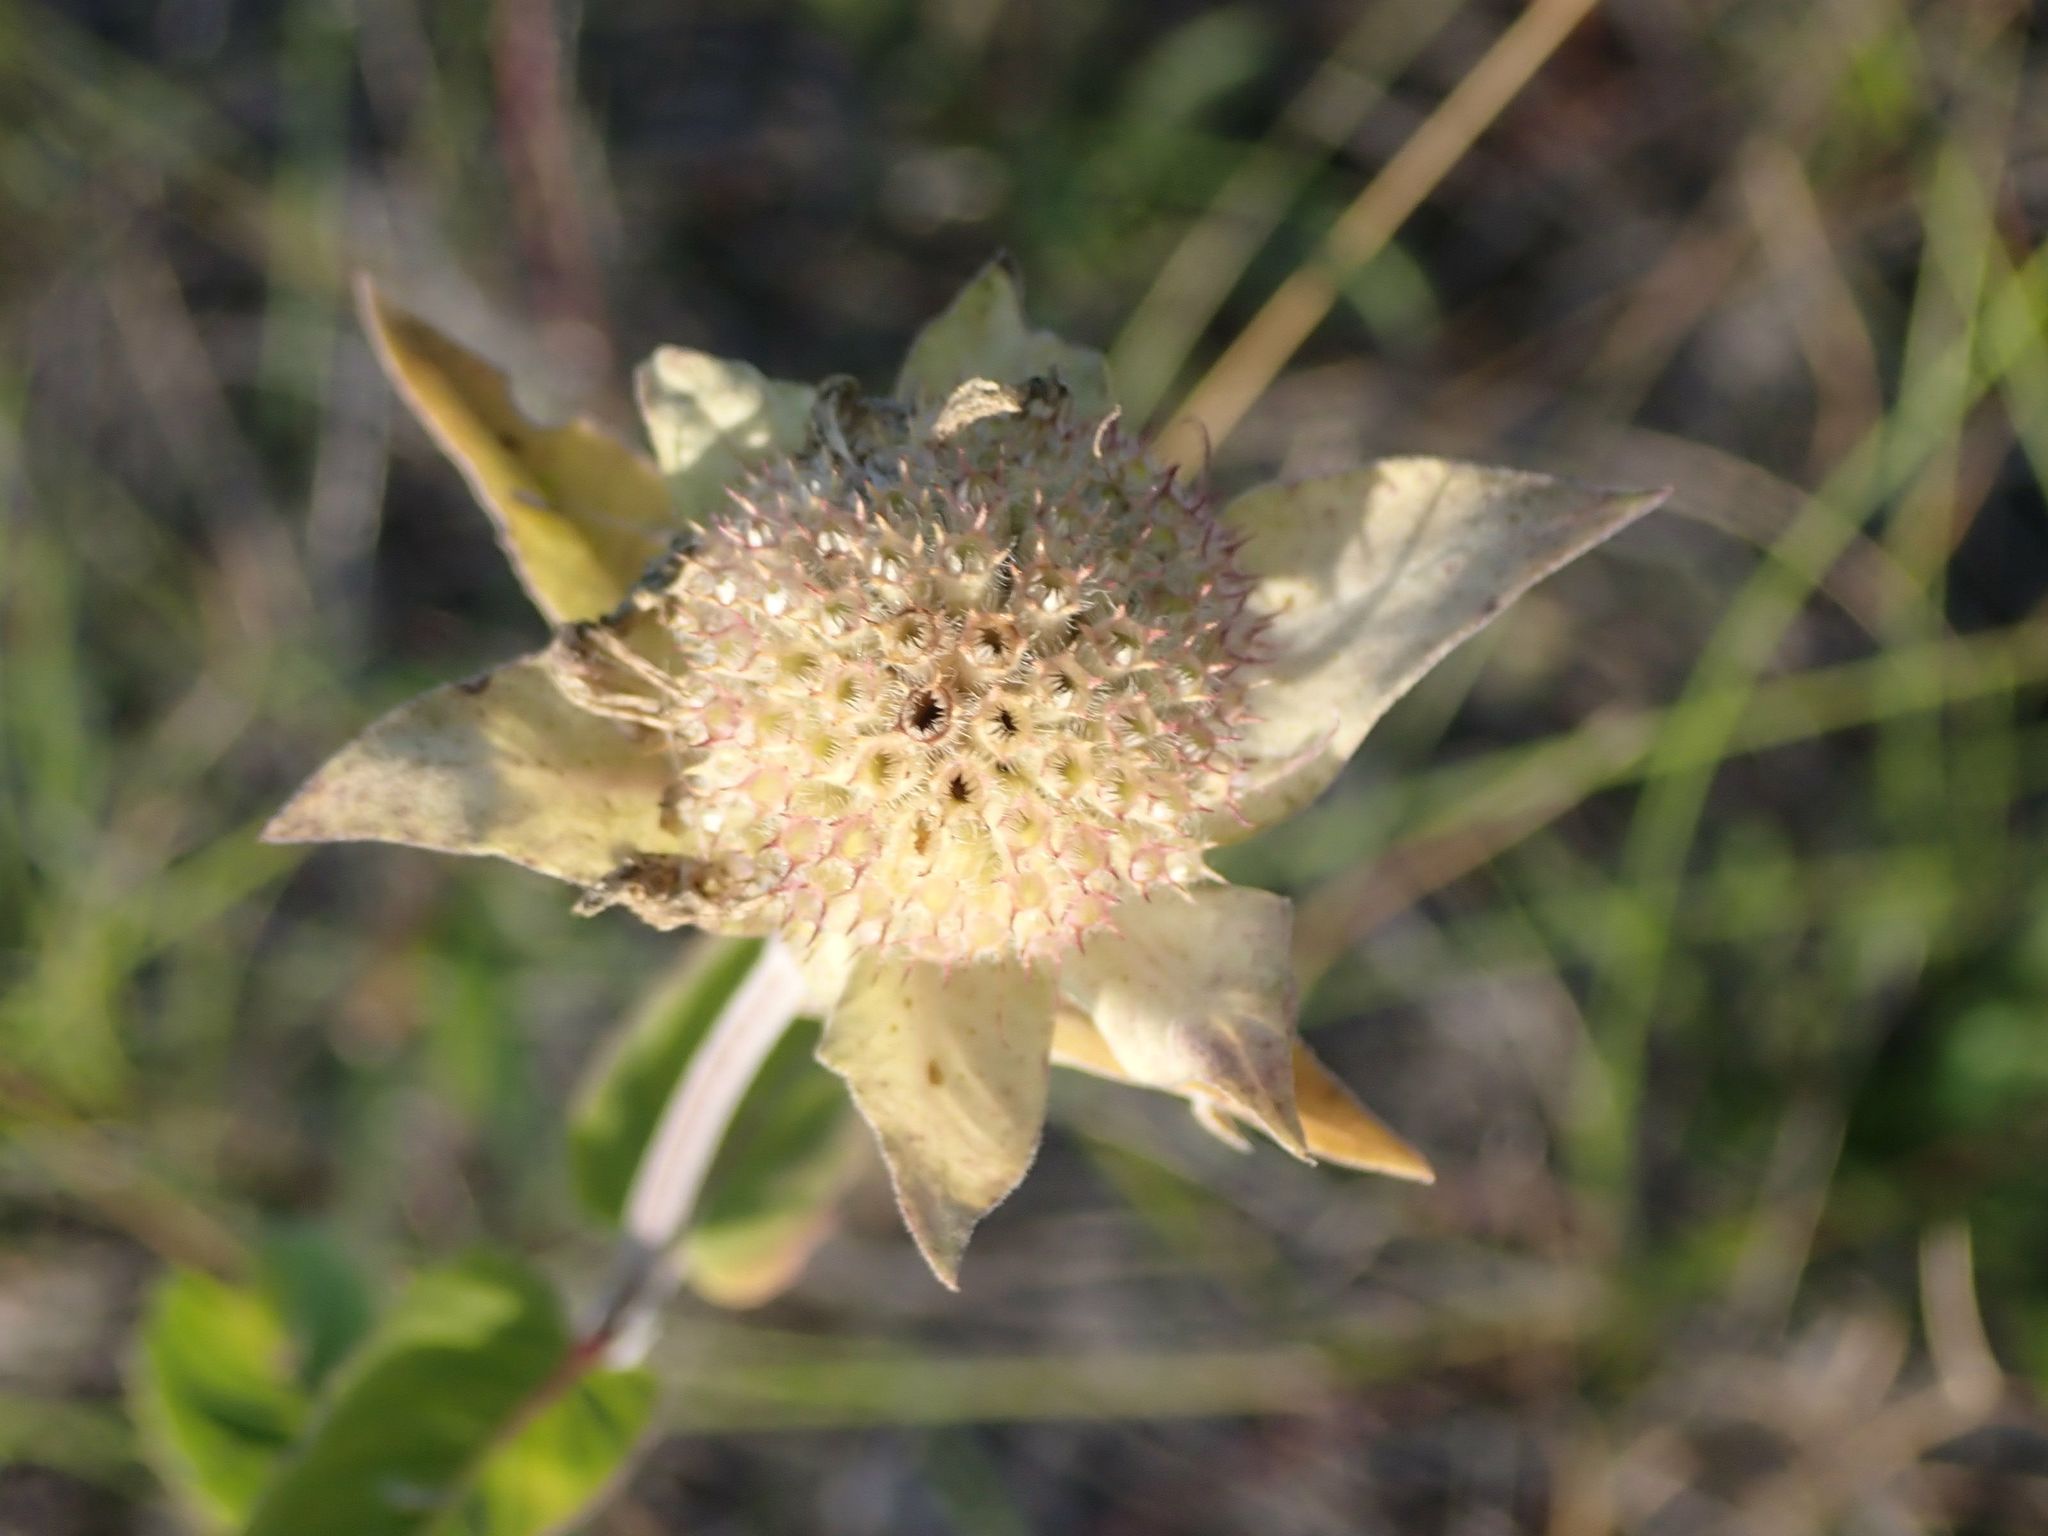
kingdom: Plantae
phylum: Tracheophyta
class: Magnoliopsida
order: Lamiales
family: Lamiaceae
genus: Monarda
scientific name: Monarda fistulosa
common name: Purple beebalm
